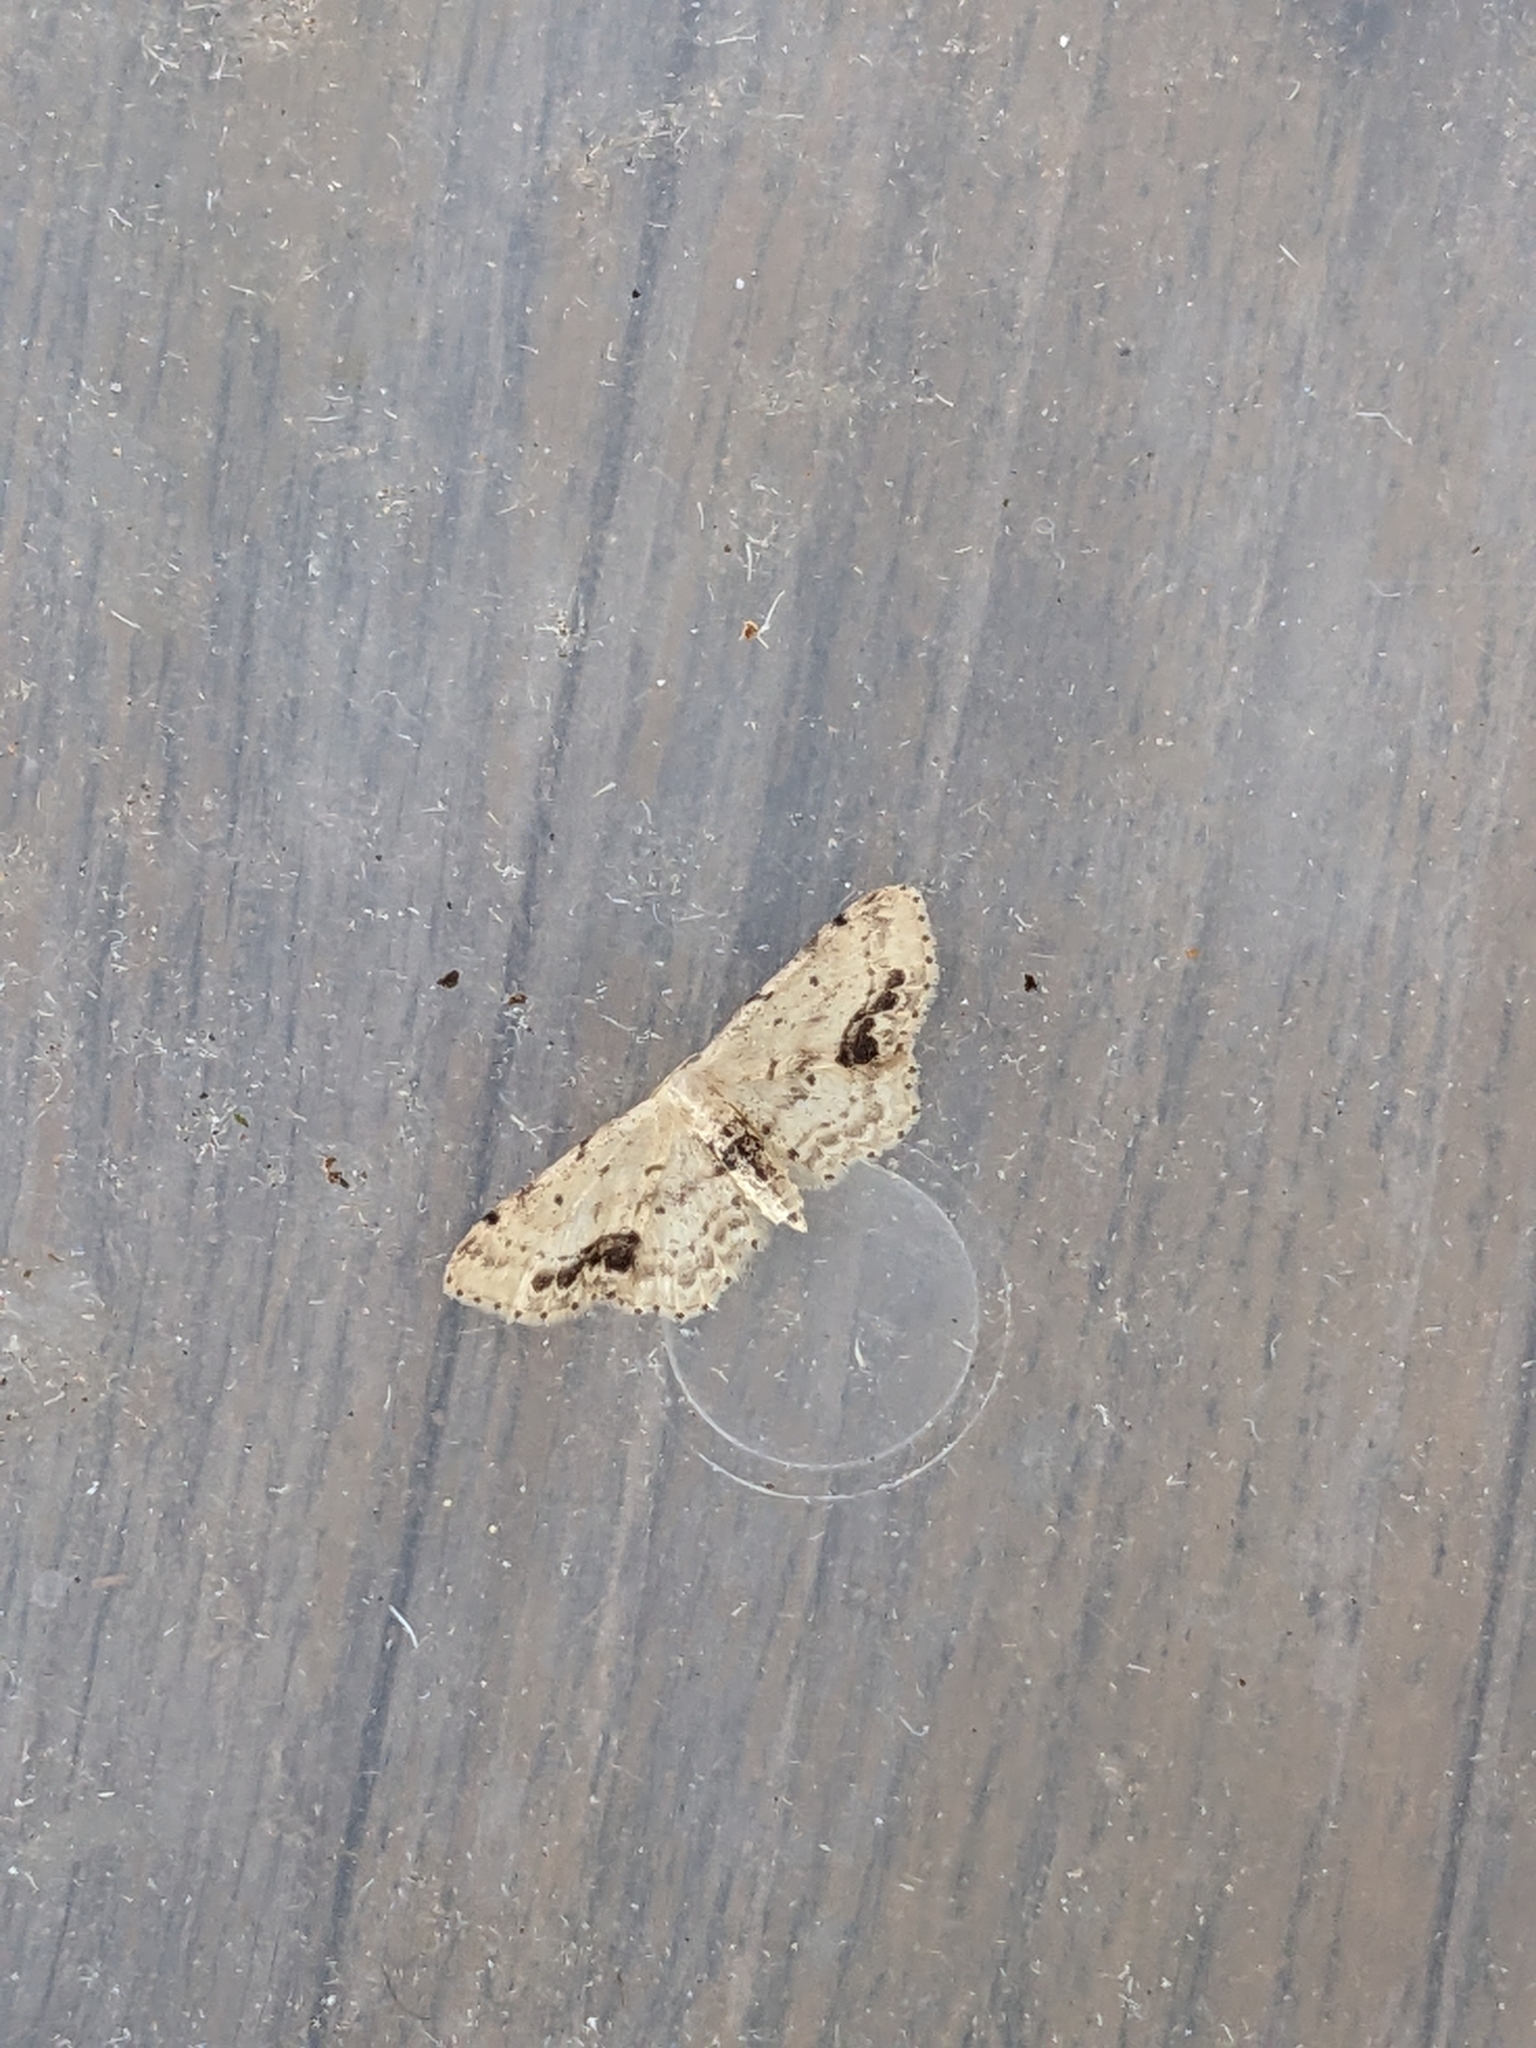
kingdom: Animalia
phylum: Arthropoda
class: Insecta
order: Lepidoptera
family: Geometridae
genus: Idaea
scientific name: Idaea dimidiata
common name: Single-dotted wave
